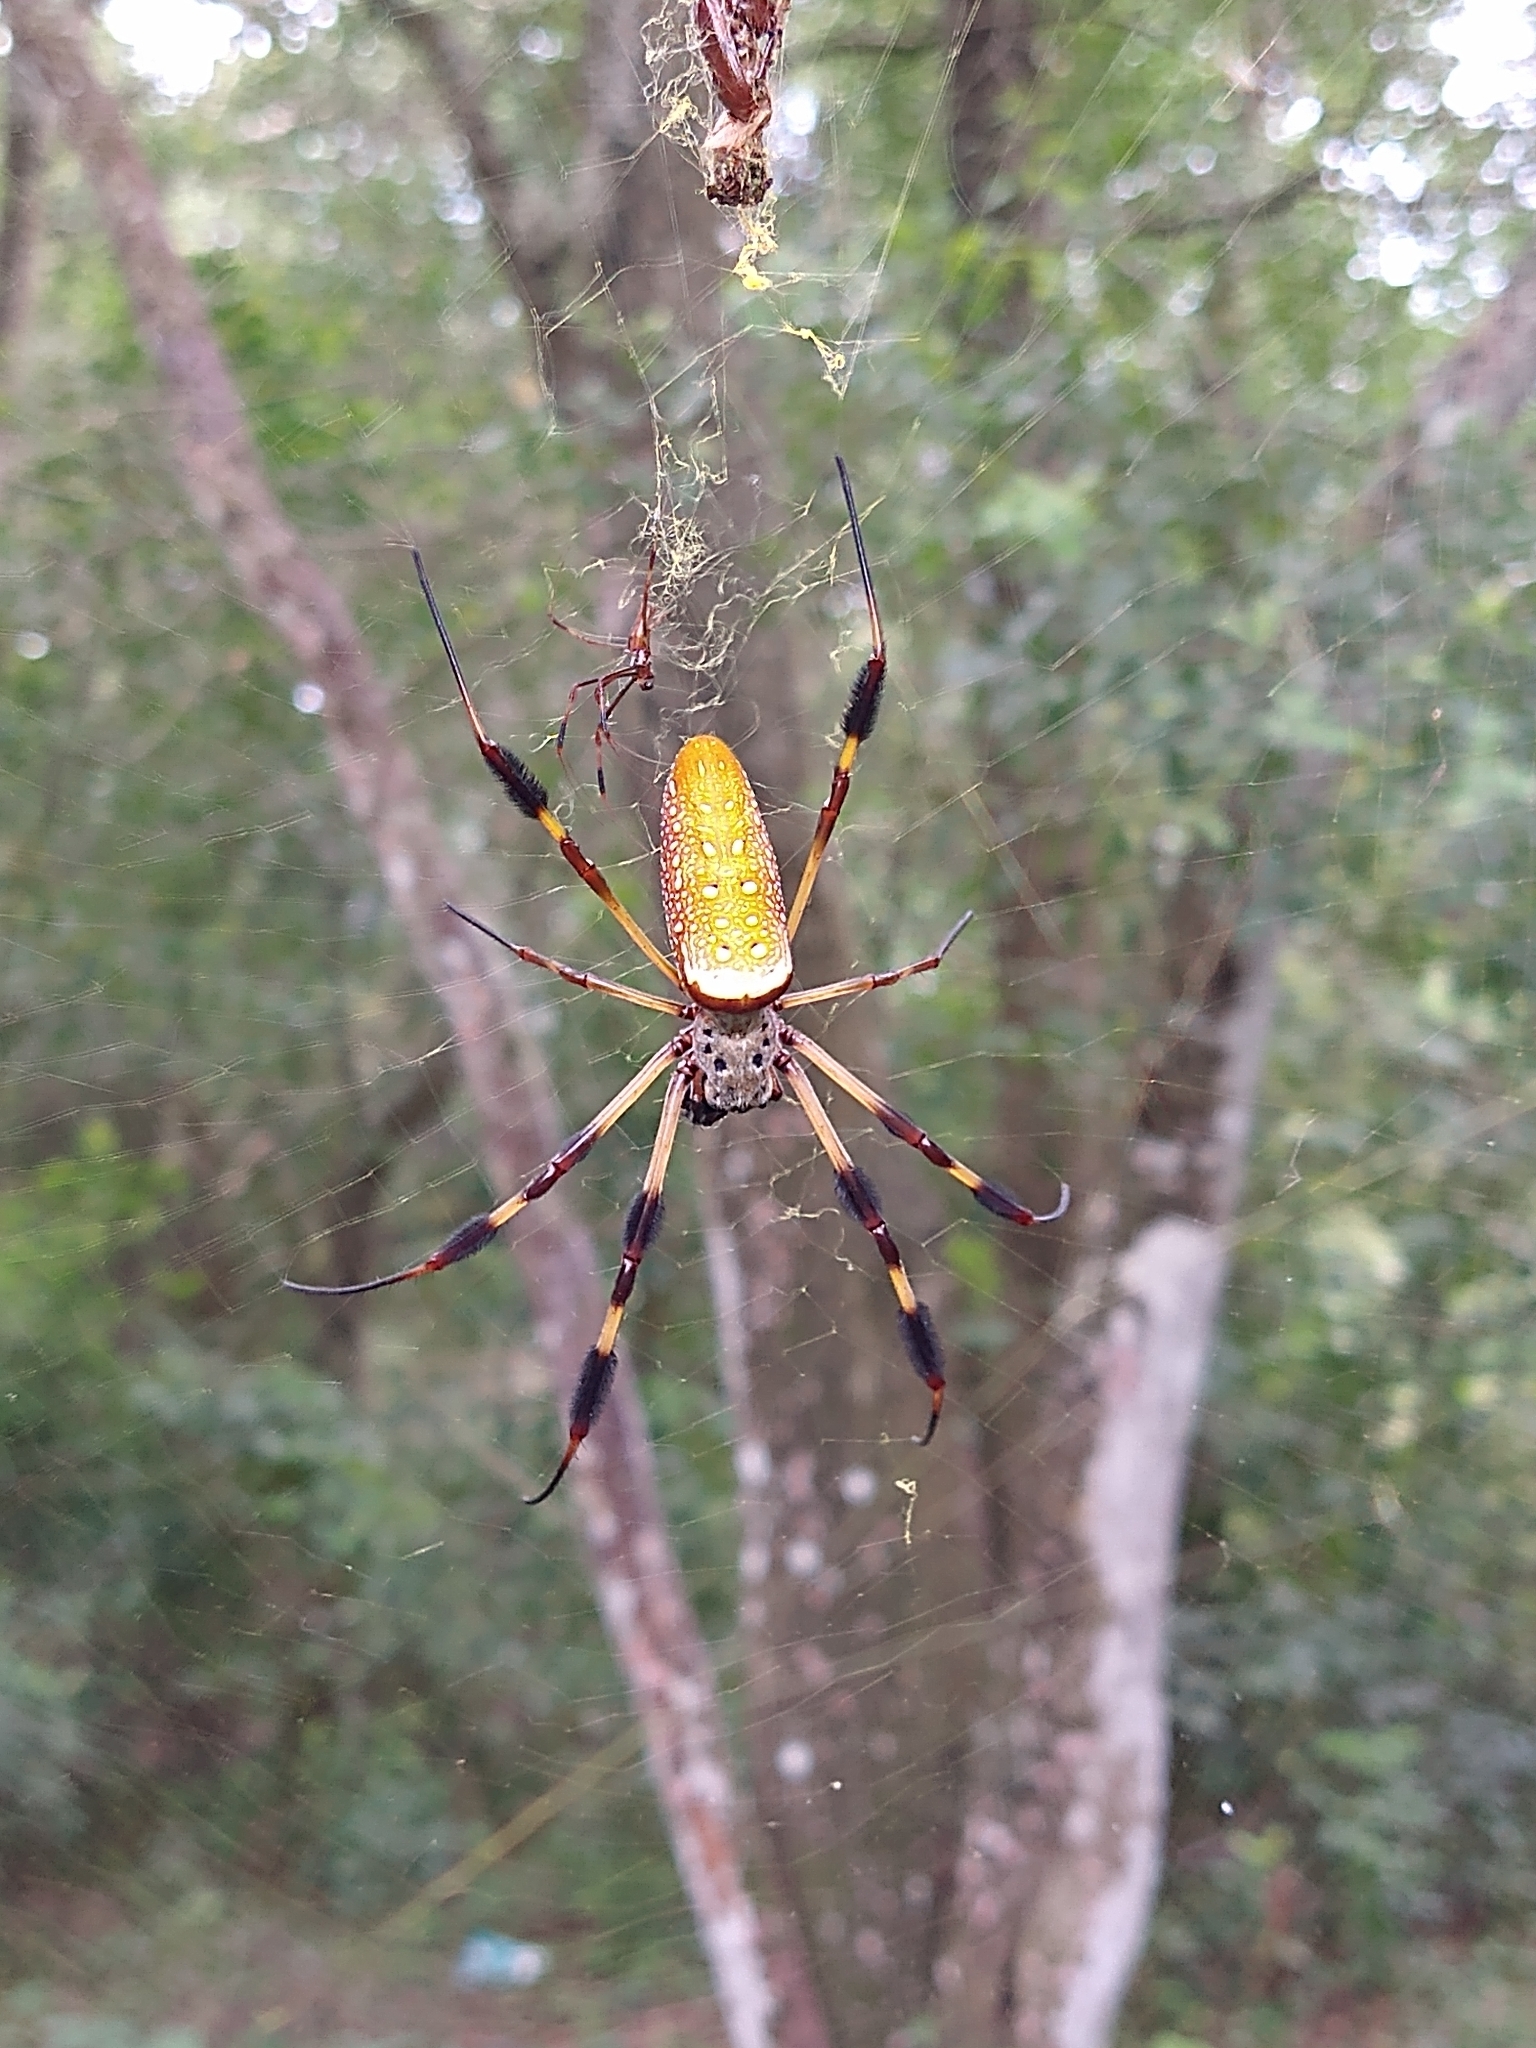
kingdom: Animalia
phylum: Arthropoda
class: Arachnida
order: Araneae
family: Araneidae
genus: Trichonephila
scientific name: Trichonephila clavipes
